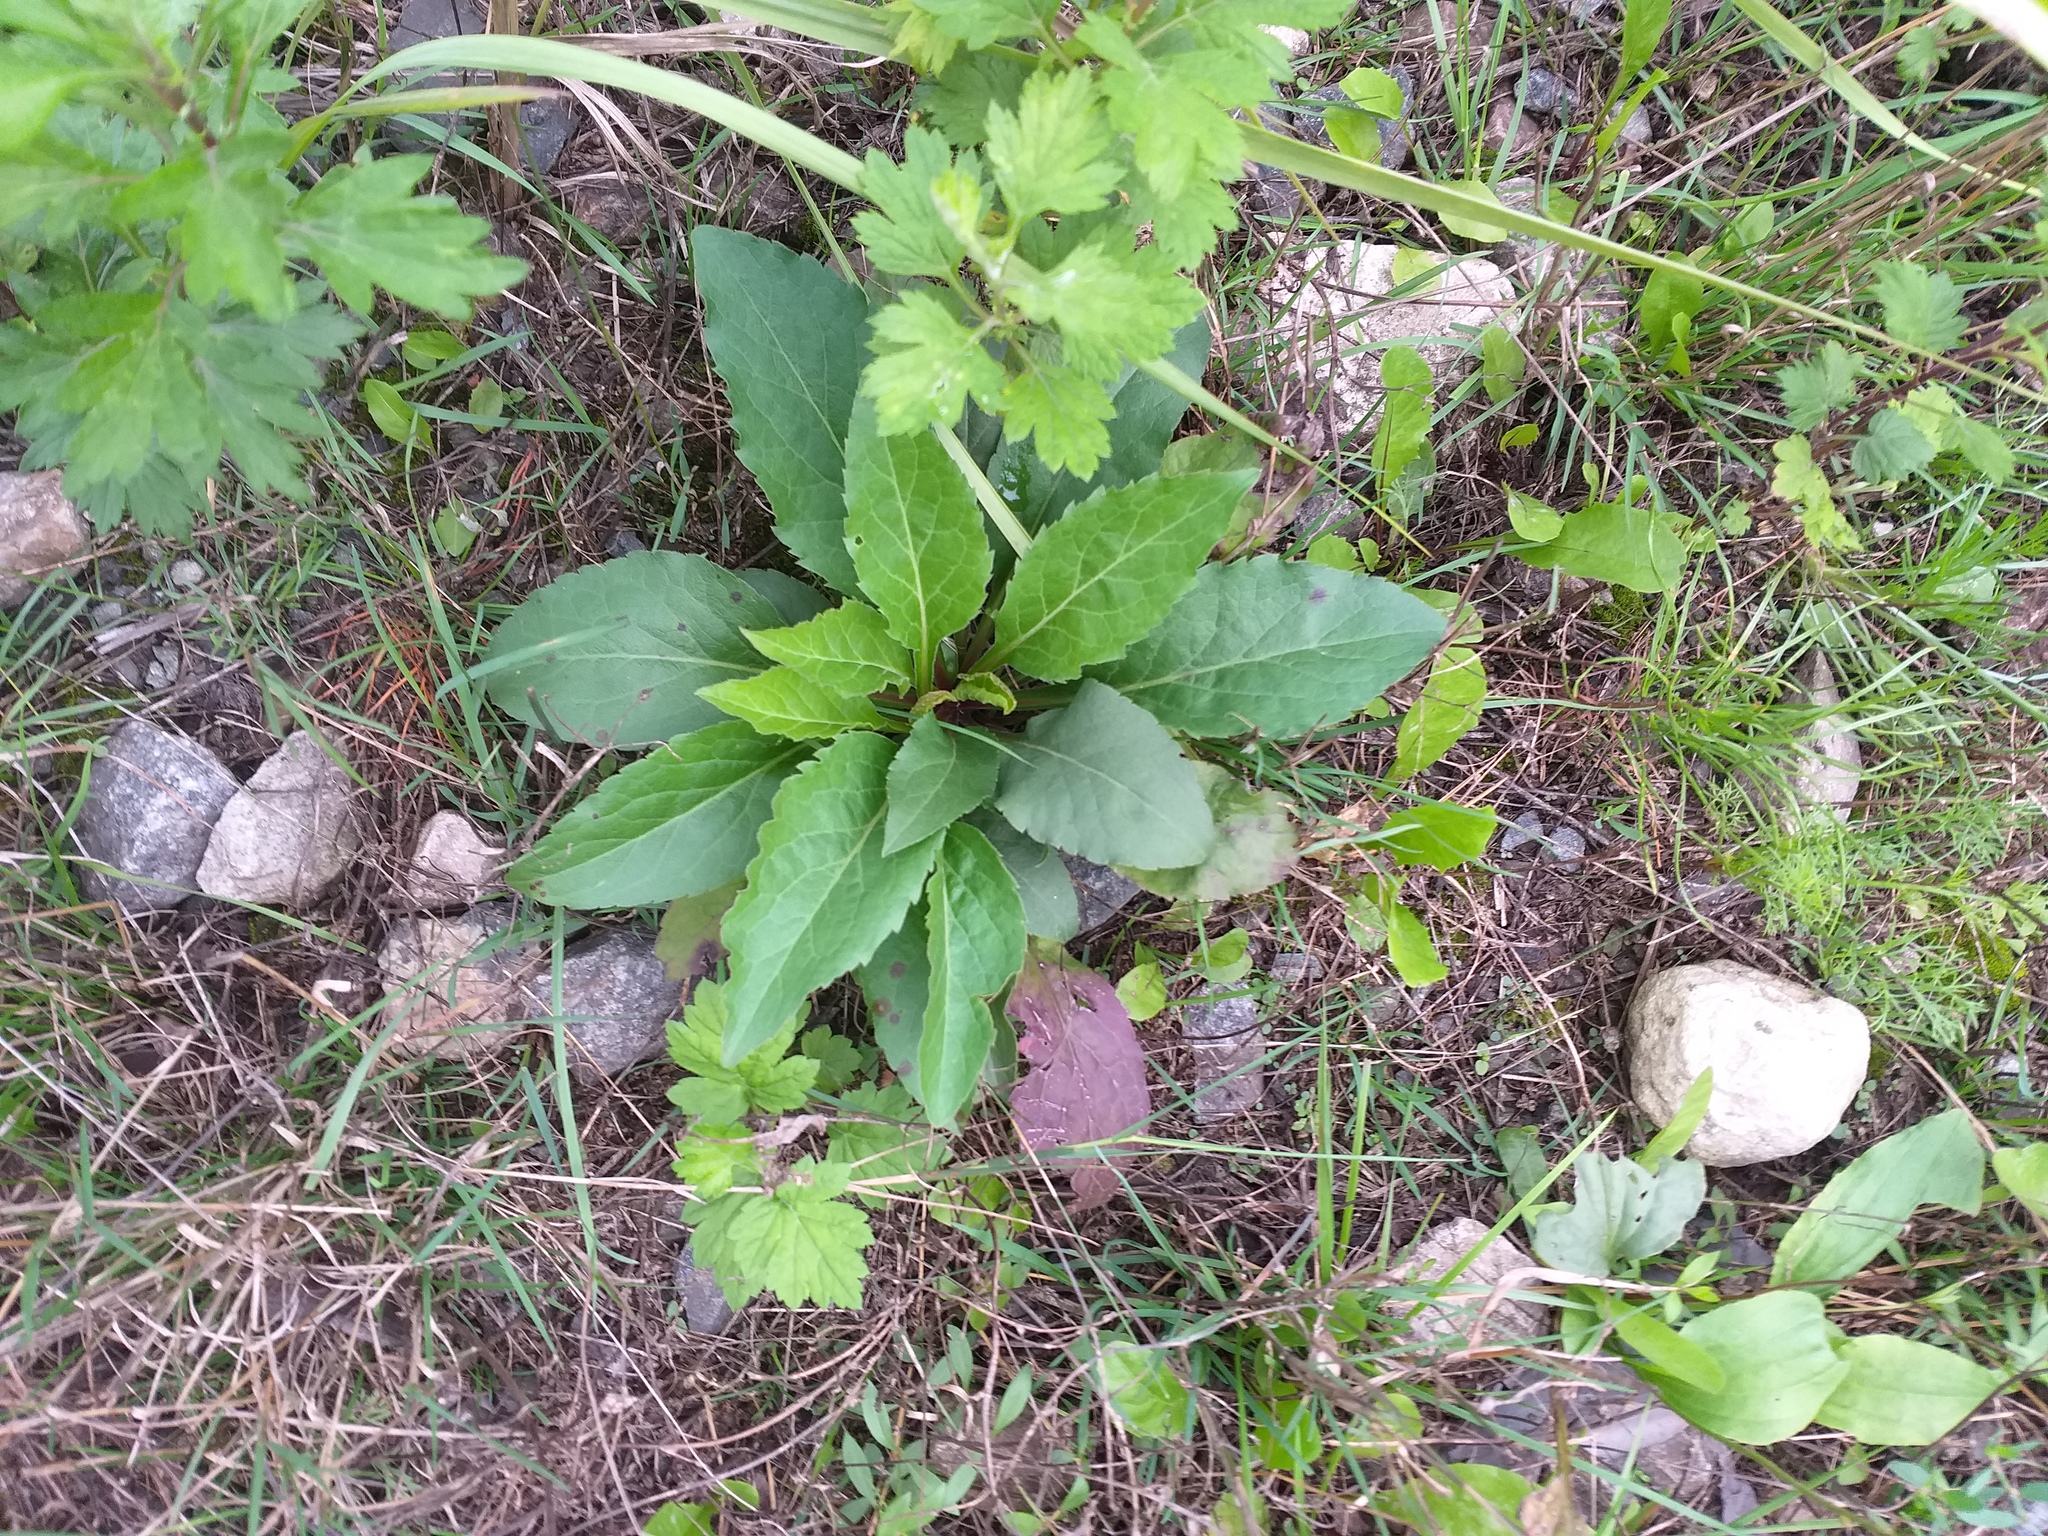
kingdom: Plantae
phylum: Tracheophyta
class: Magnoliopsida
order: Asterales
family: Asteraceae
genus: Solidago
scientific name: Solidago virgaurea
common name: Goldenrod
